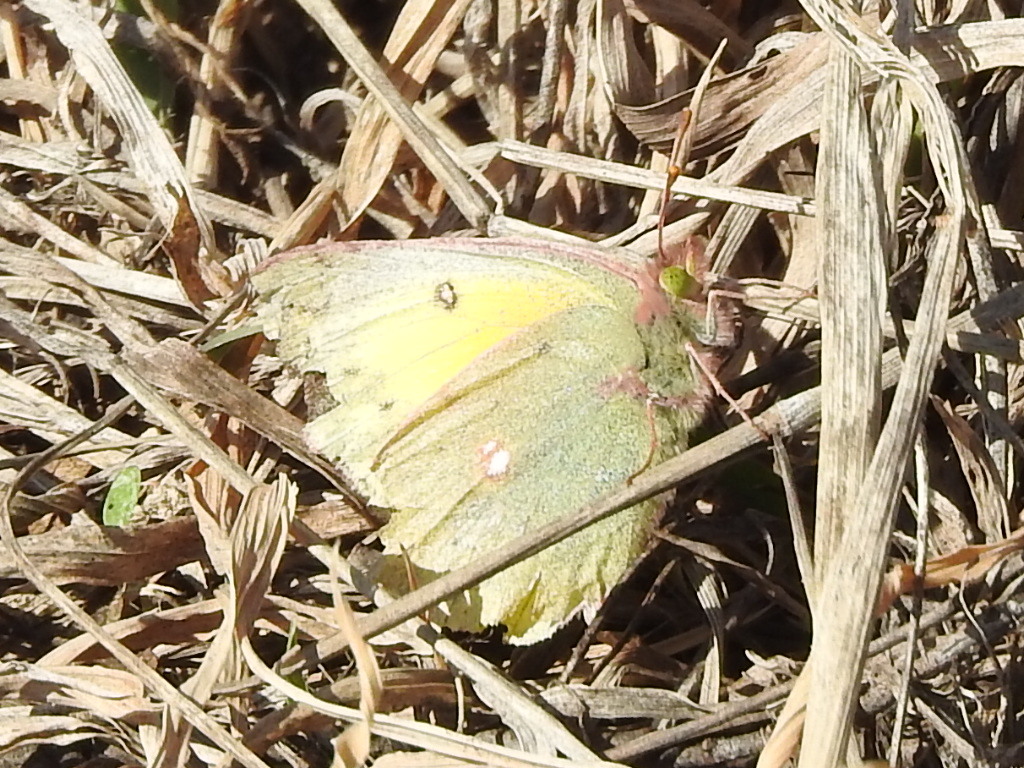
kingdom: Animalia
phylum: Arthropoda
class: Insecta
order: Lepidoptera
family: Pieridae
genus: Colias
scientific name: Colias eurytheme
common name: Alfalfa butterfly
